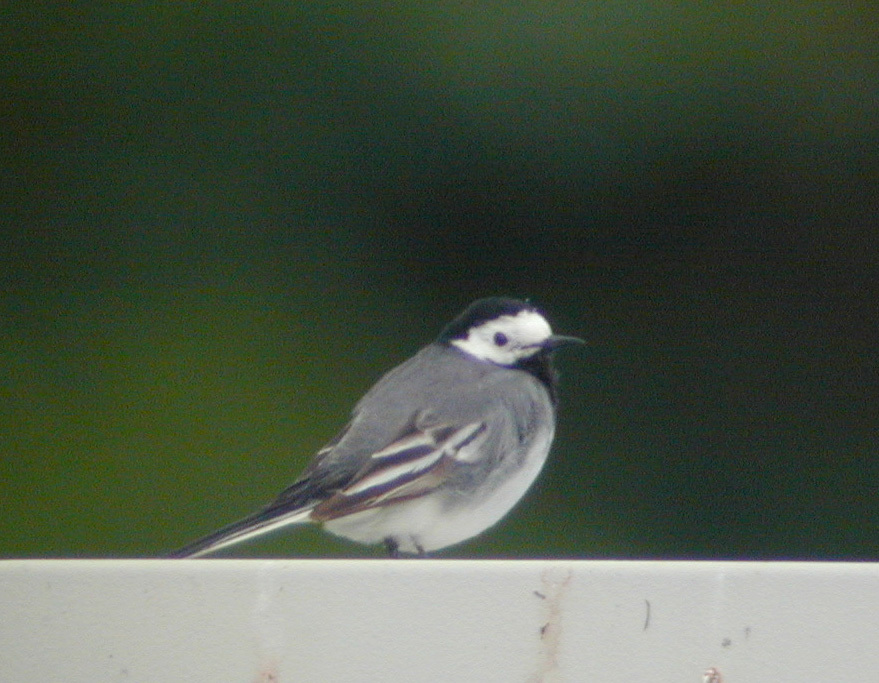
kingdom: Animalia
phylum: Chordata
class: Aves
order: Passeriformes
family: Motacillidae
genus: Motacilla
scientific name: Motacilla alba
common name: White wagtail
